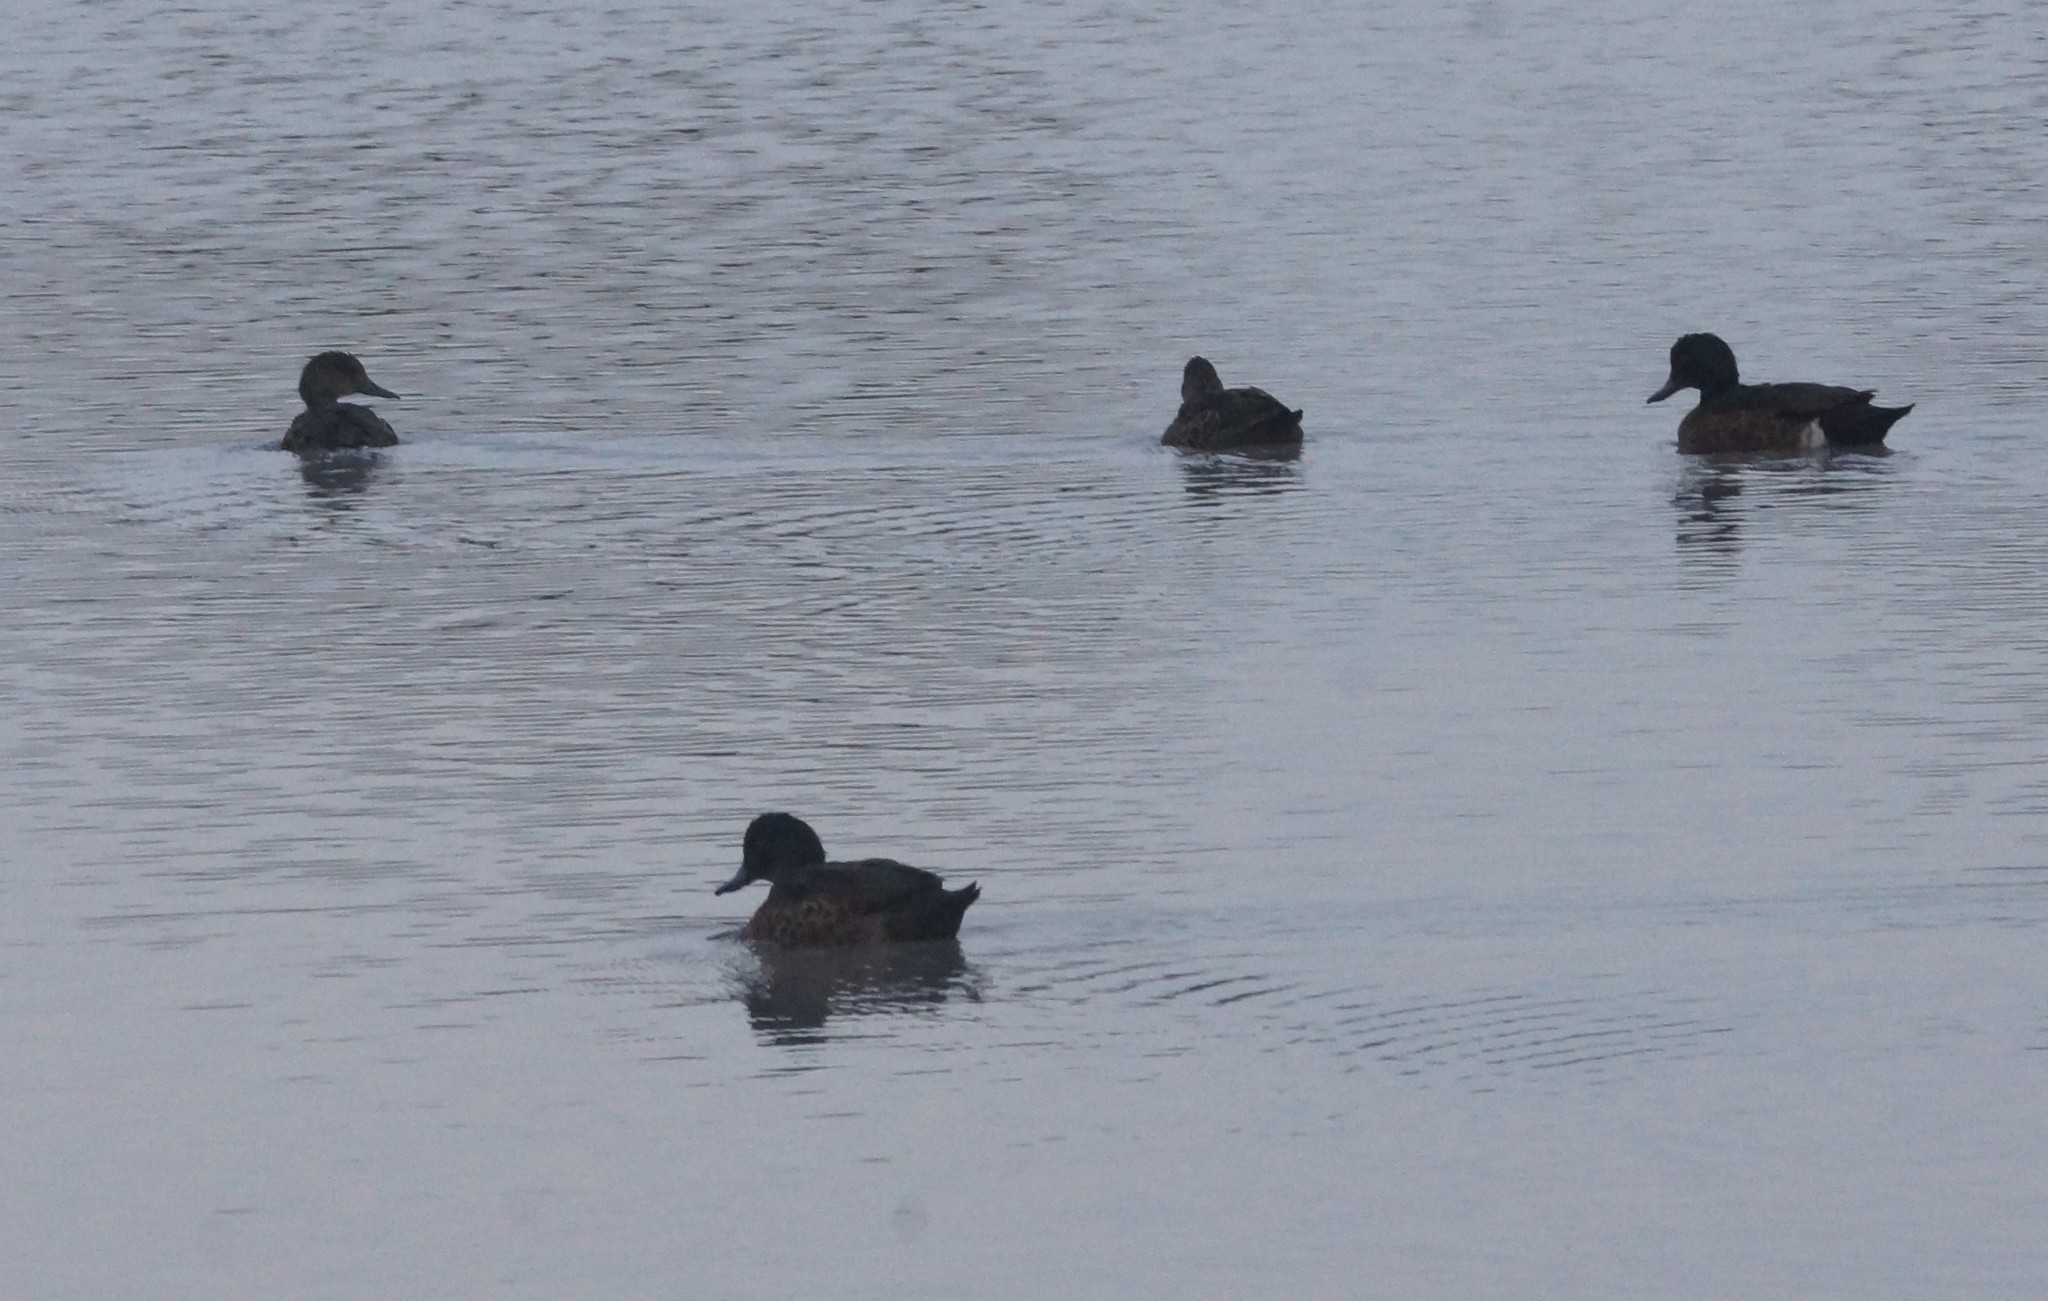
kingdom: Animalia
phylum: Chordata
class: Aves
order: Anseriformes
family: Anatidae
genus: Anas
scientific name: Anas castanea
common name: Chestnut teal
